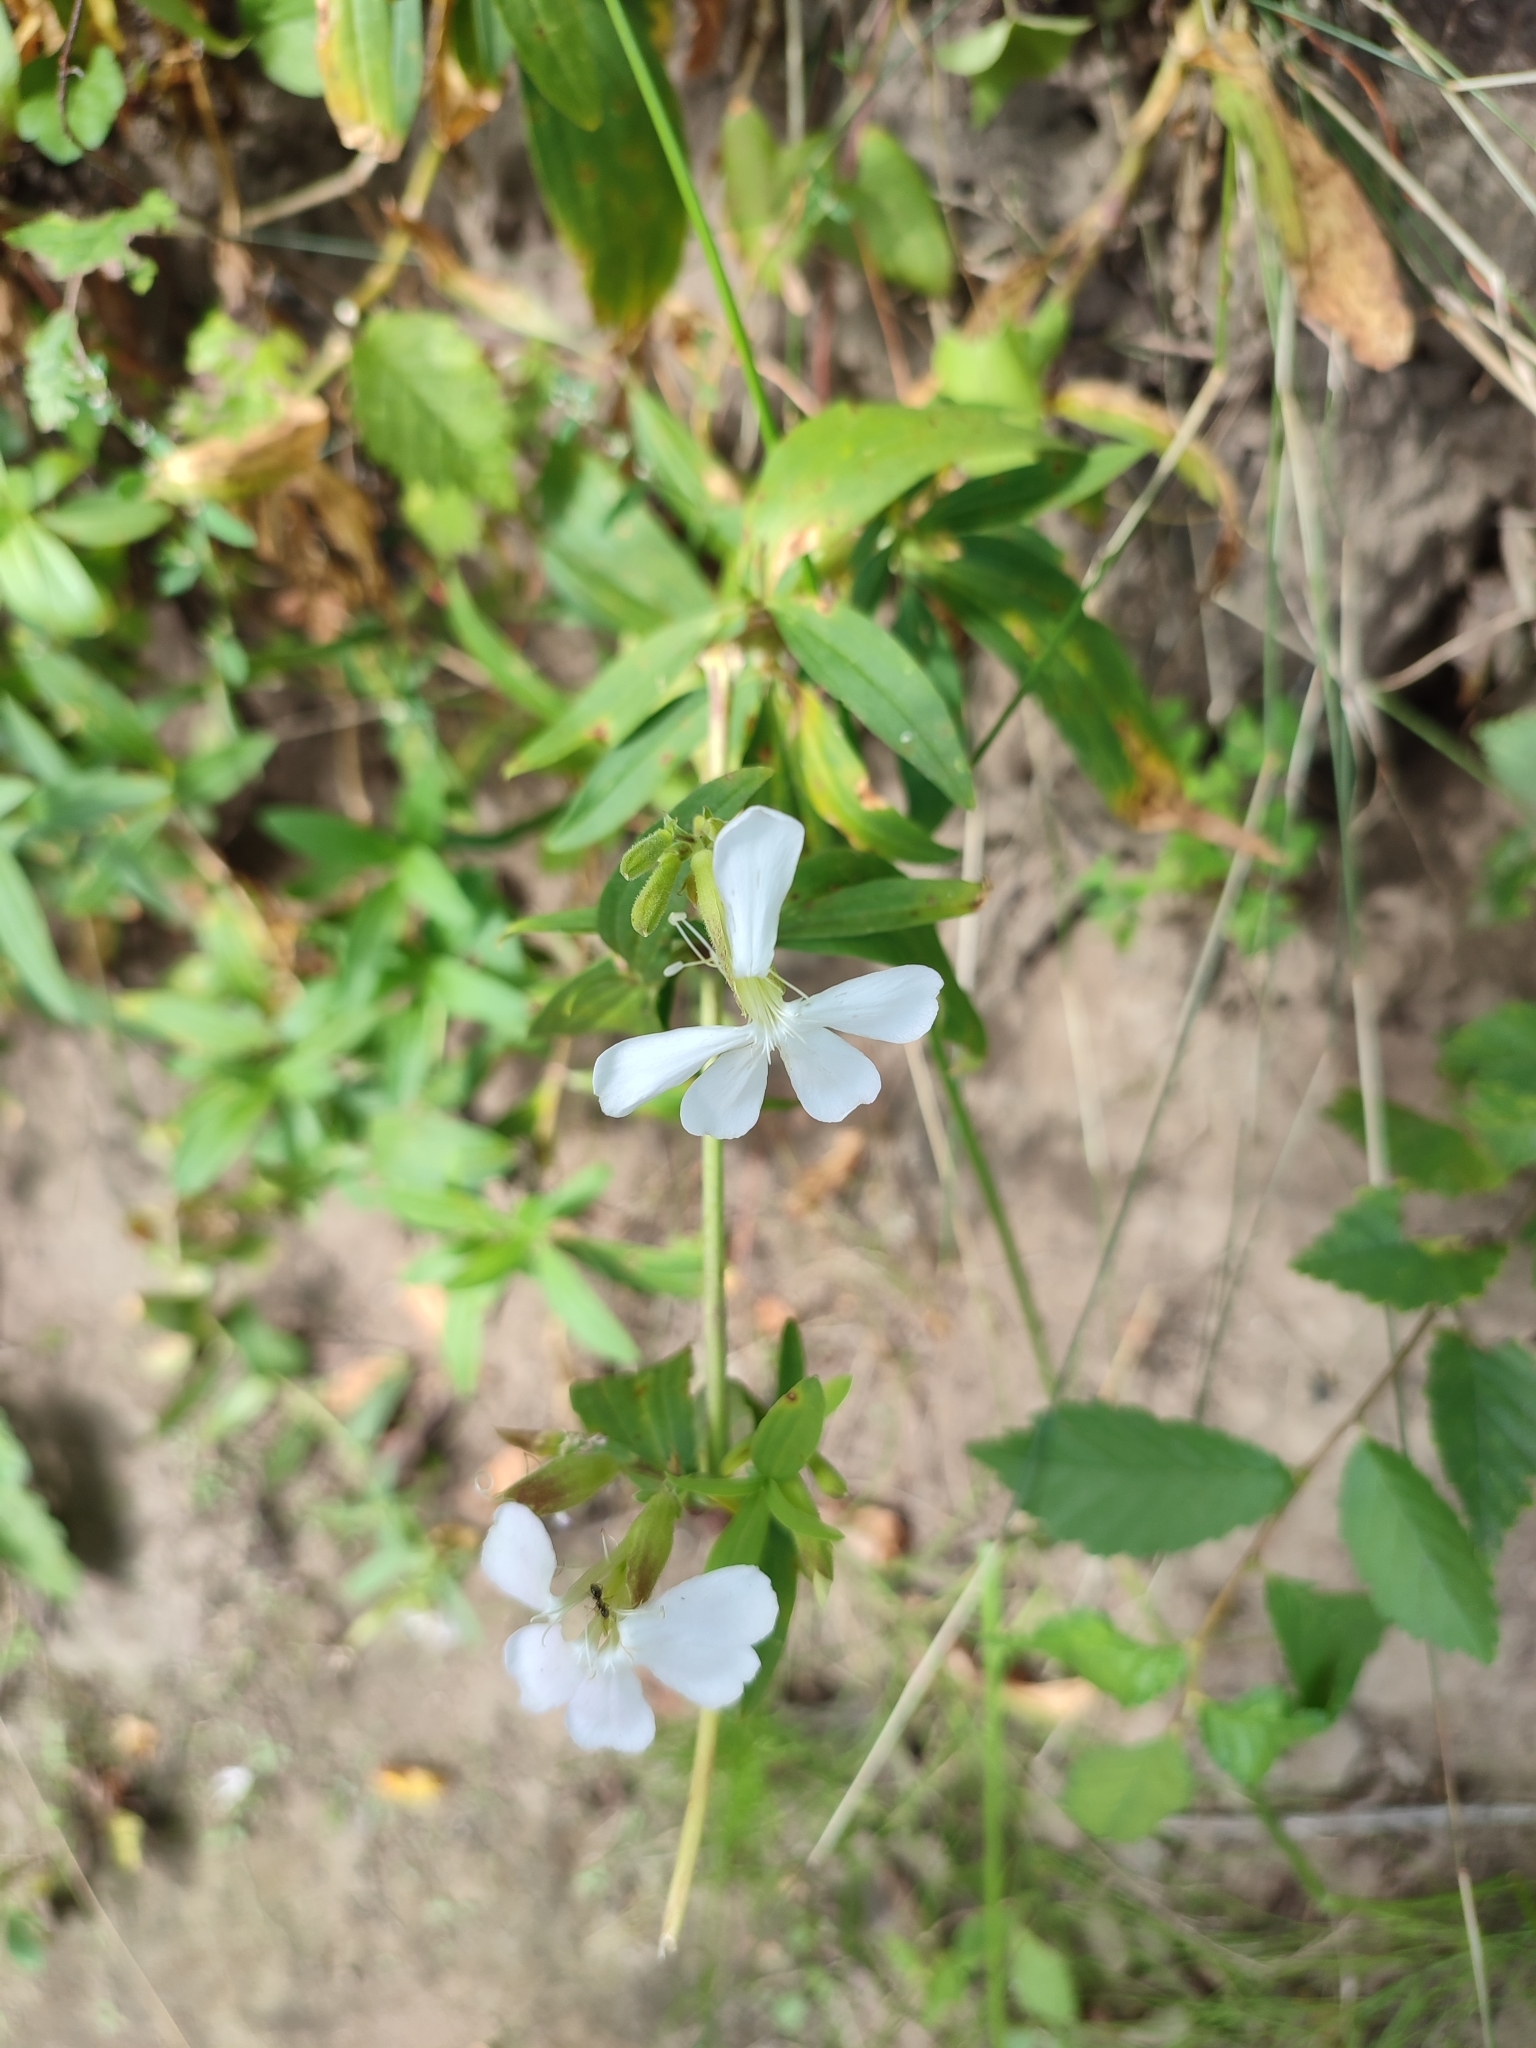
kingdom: Plantae
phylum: Tracheophyta
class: Magnoliopsida
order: Caryophyllales
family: Caryophyllaceae
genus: Saponaria
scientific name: Saponaria officinalis
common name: Soapwort
